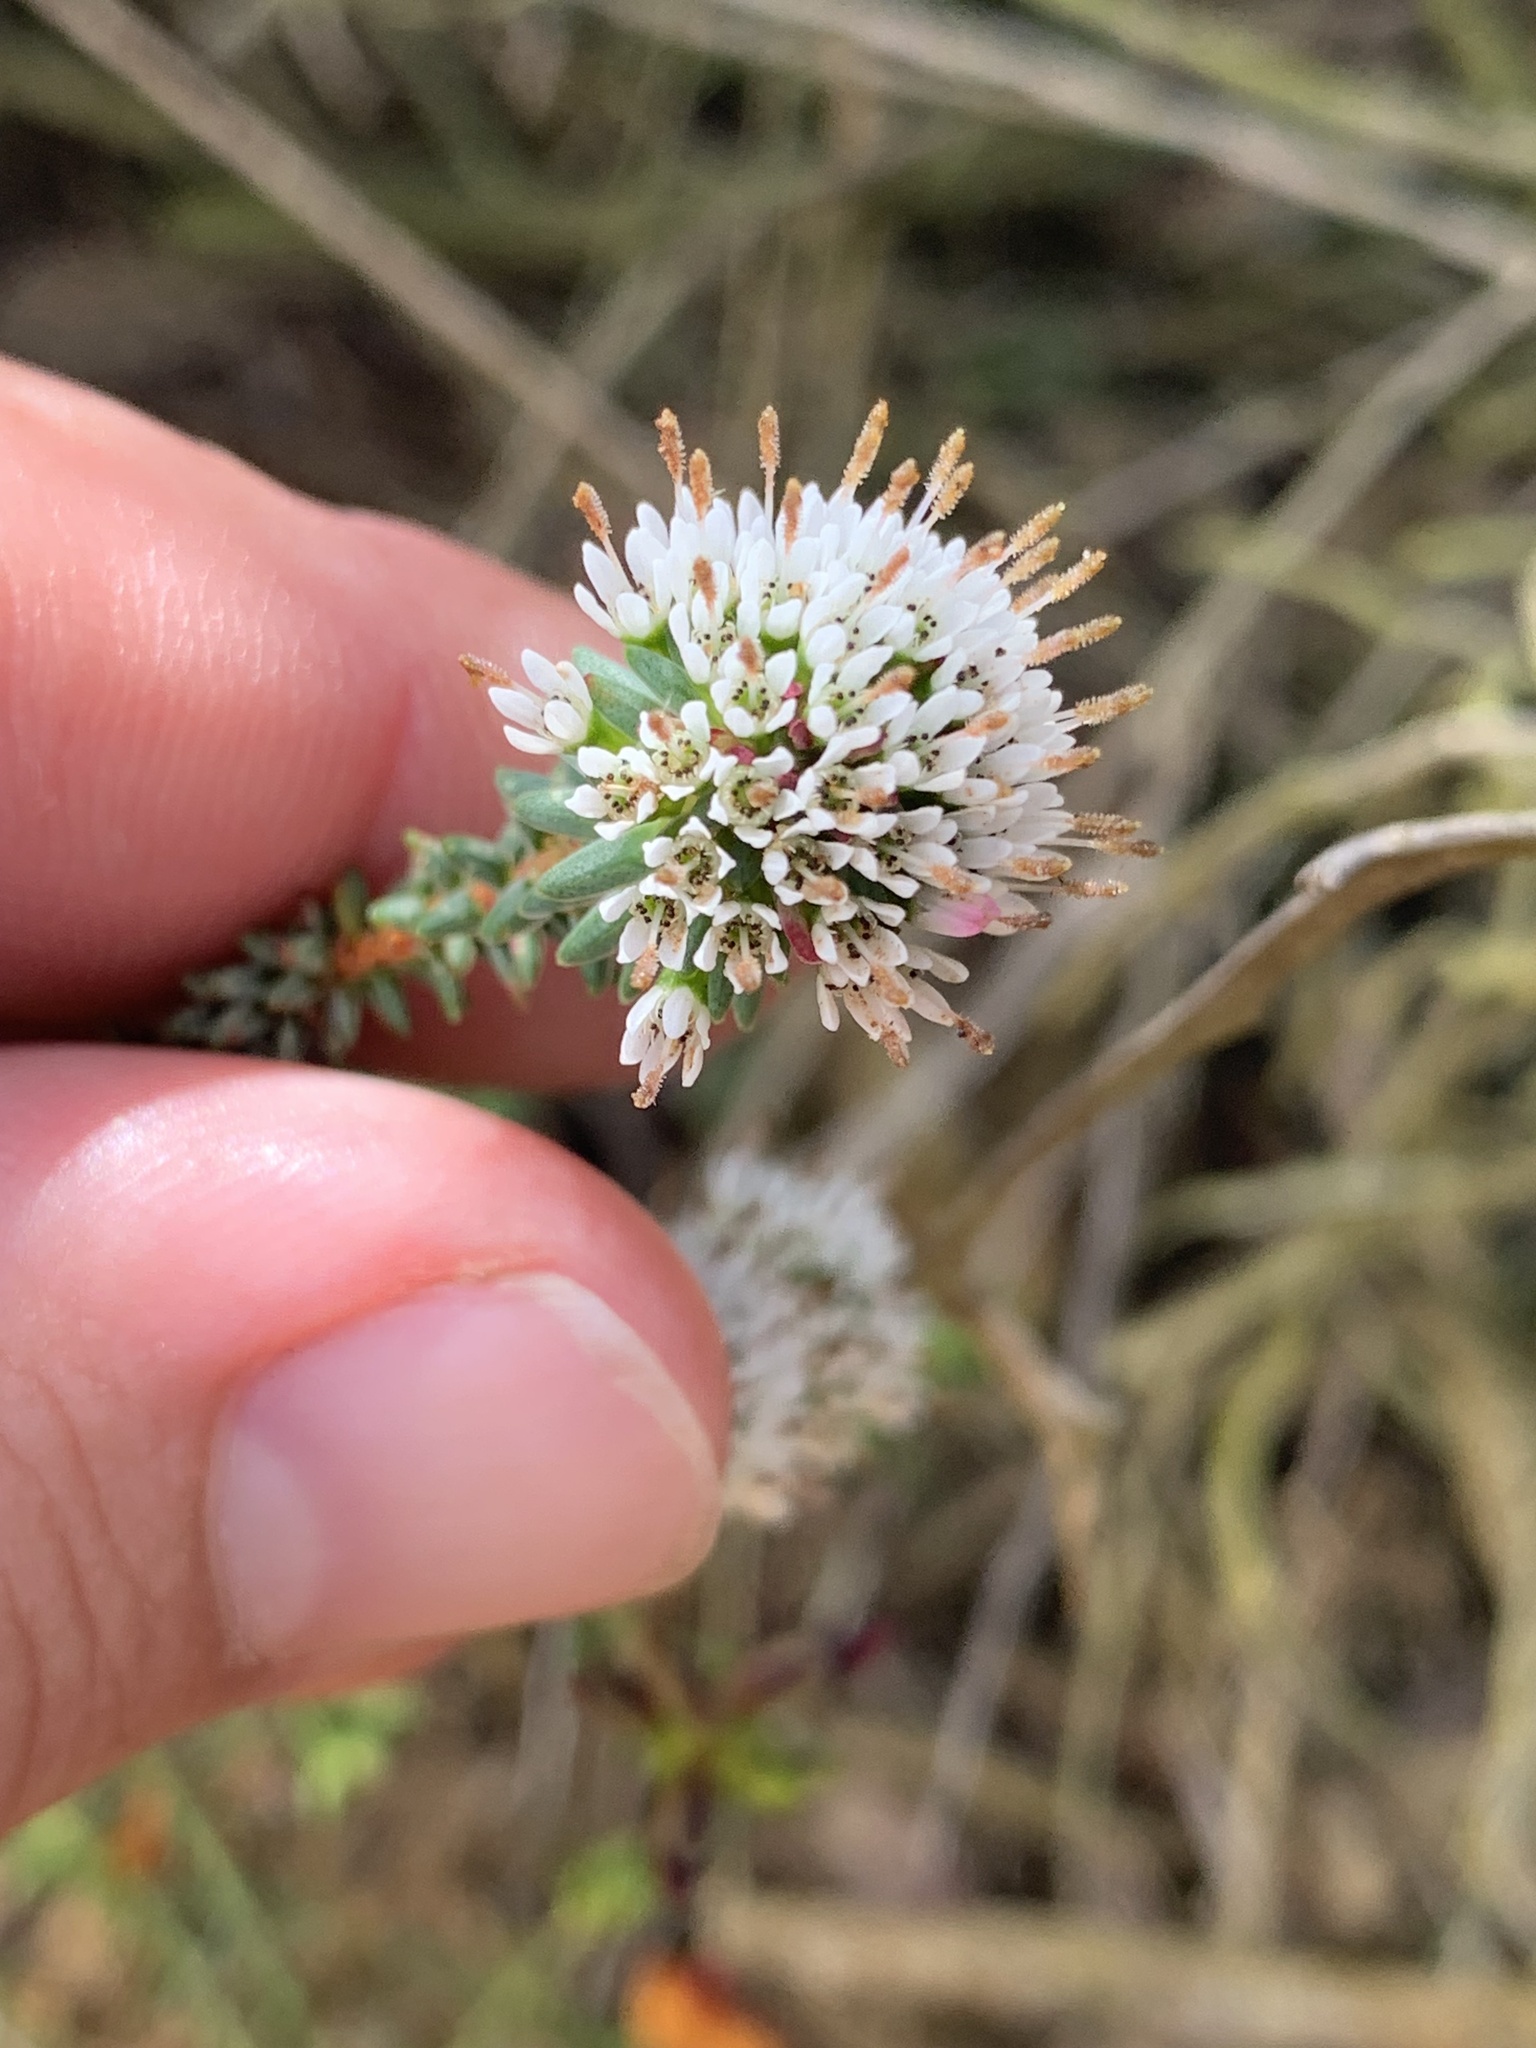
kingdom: Plantae
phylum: Tracheophyta
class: Magnoliopsida
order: Myrtales
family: Myrtaceae
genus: Darwinia
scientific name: Darwinia vestita
